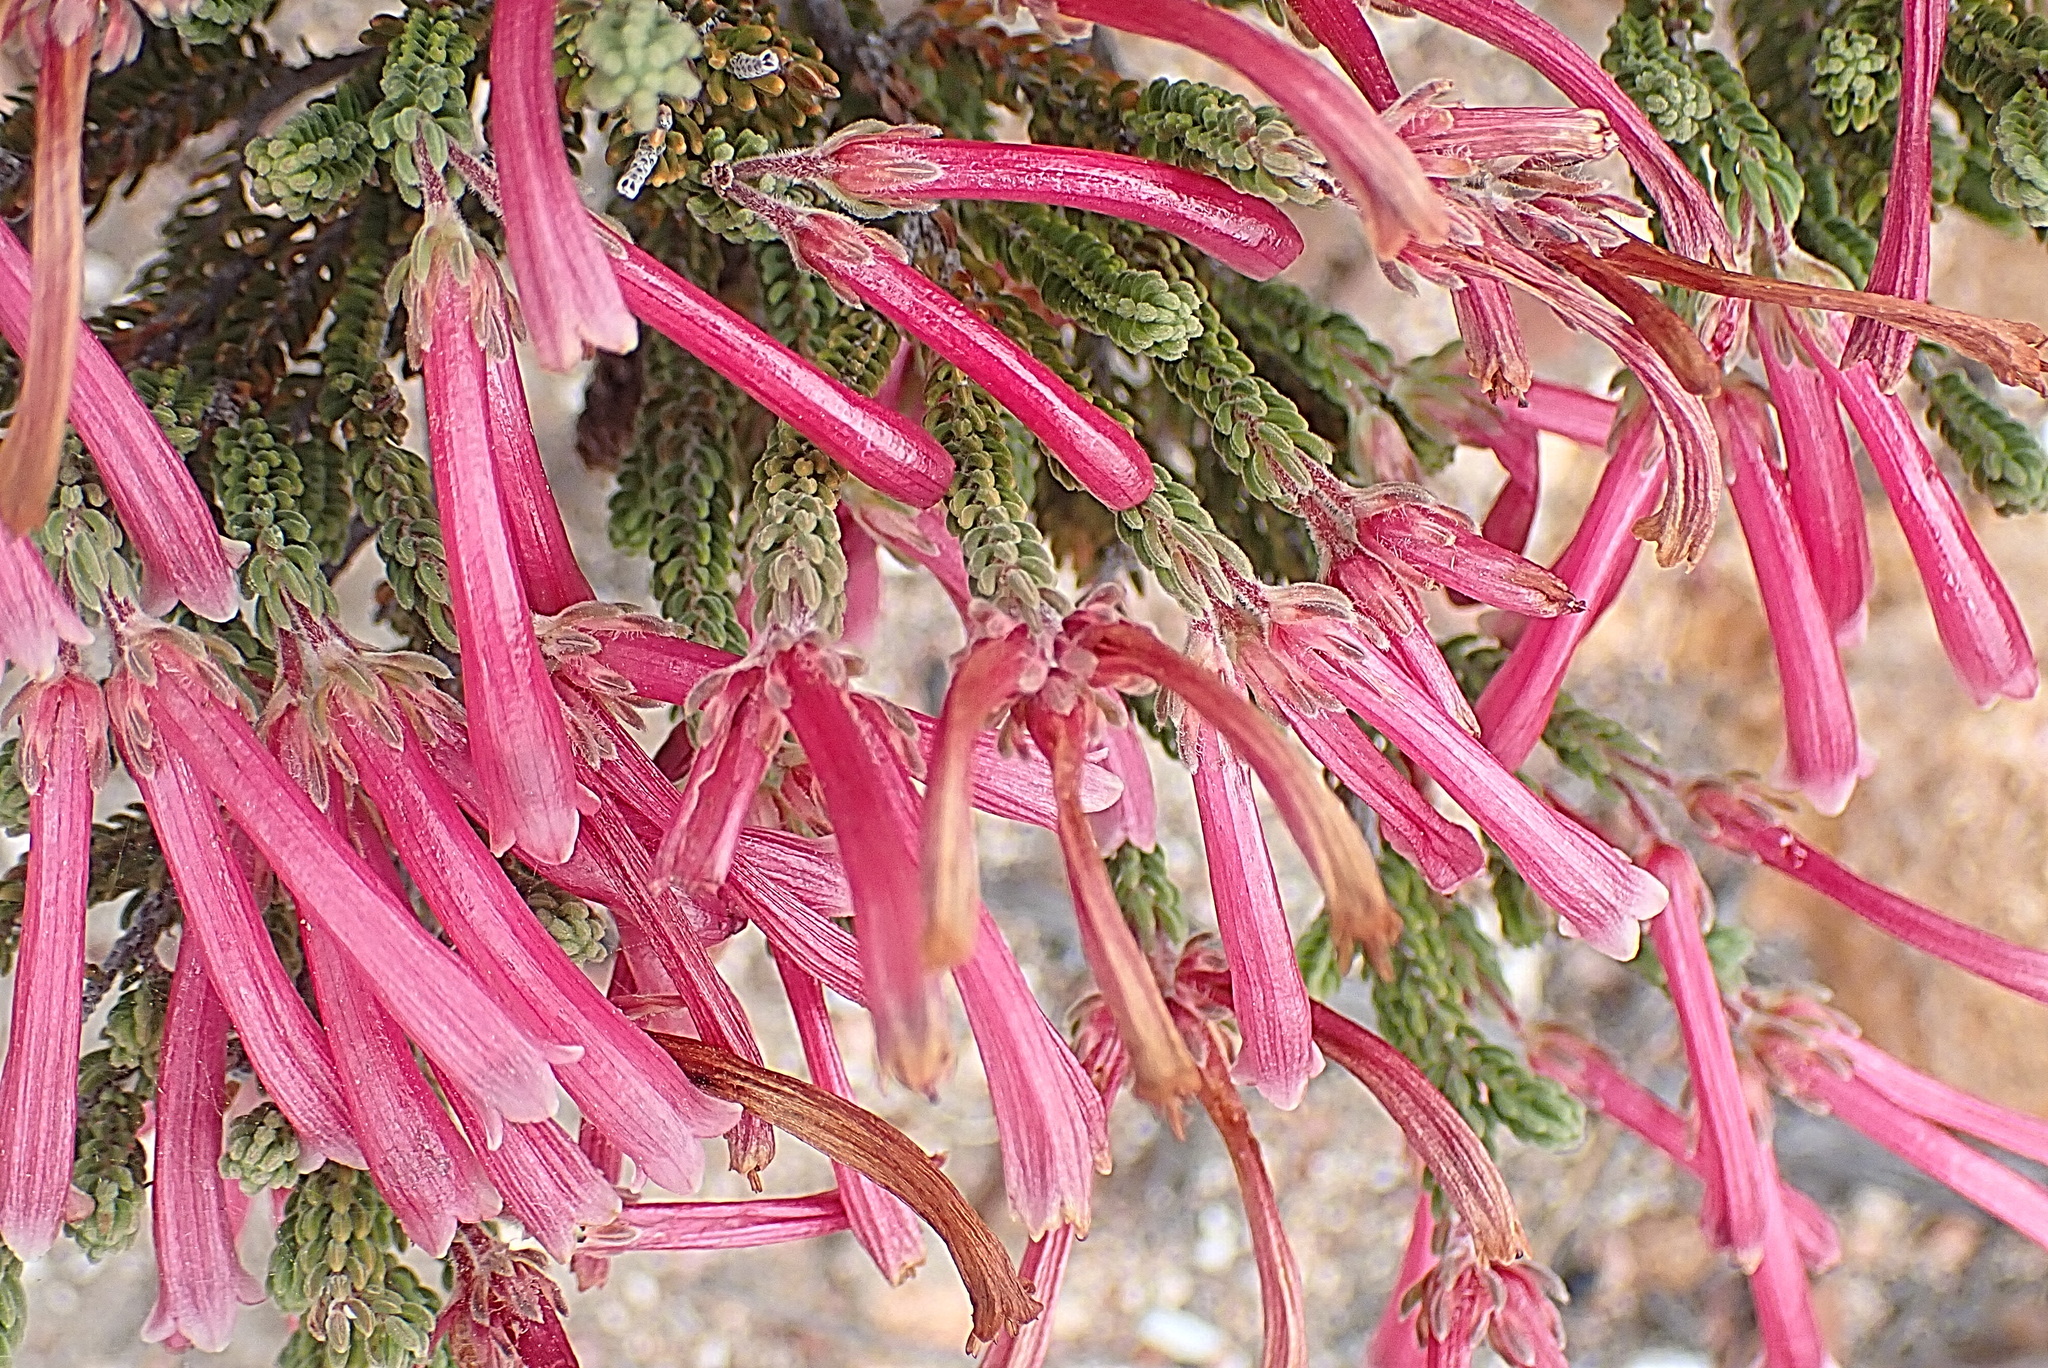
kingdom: Plantae
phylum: Tracheophyta
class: Magnoliopsida
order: Ericales
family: Ericaceae
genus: Erica
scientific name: Erica discolor
